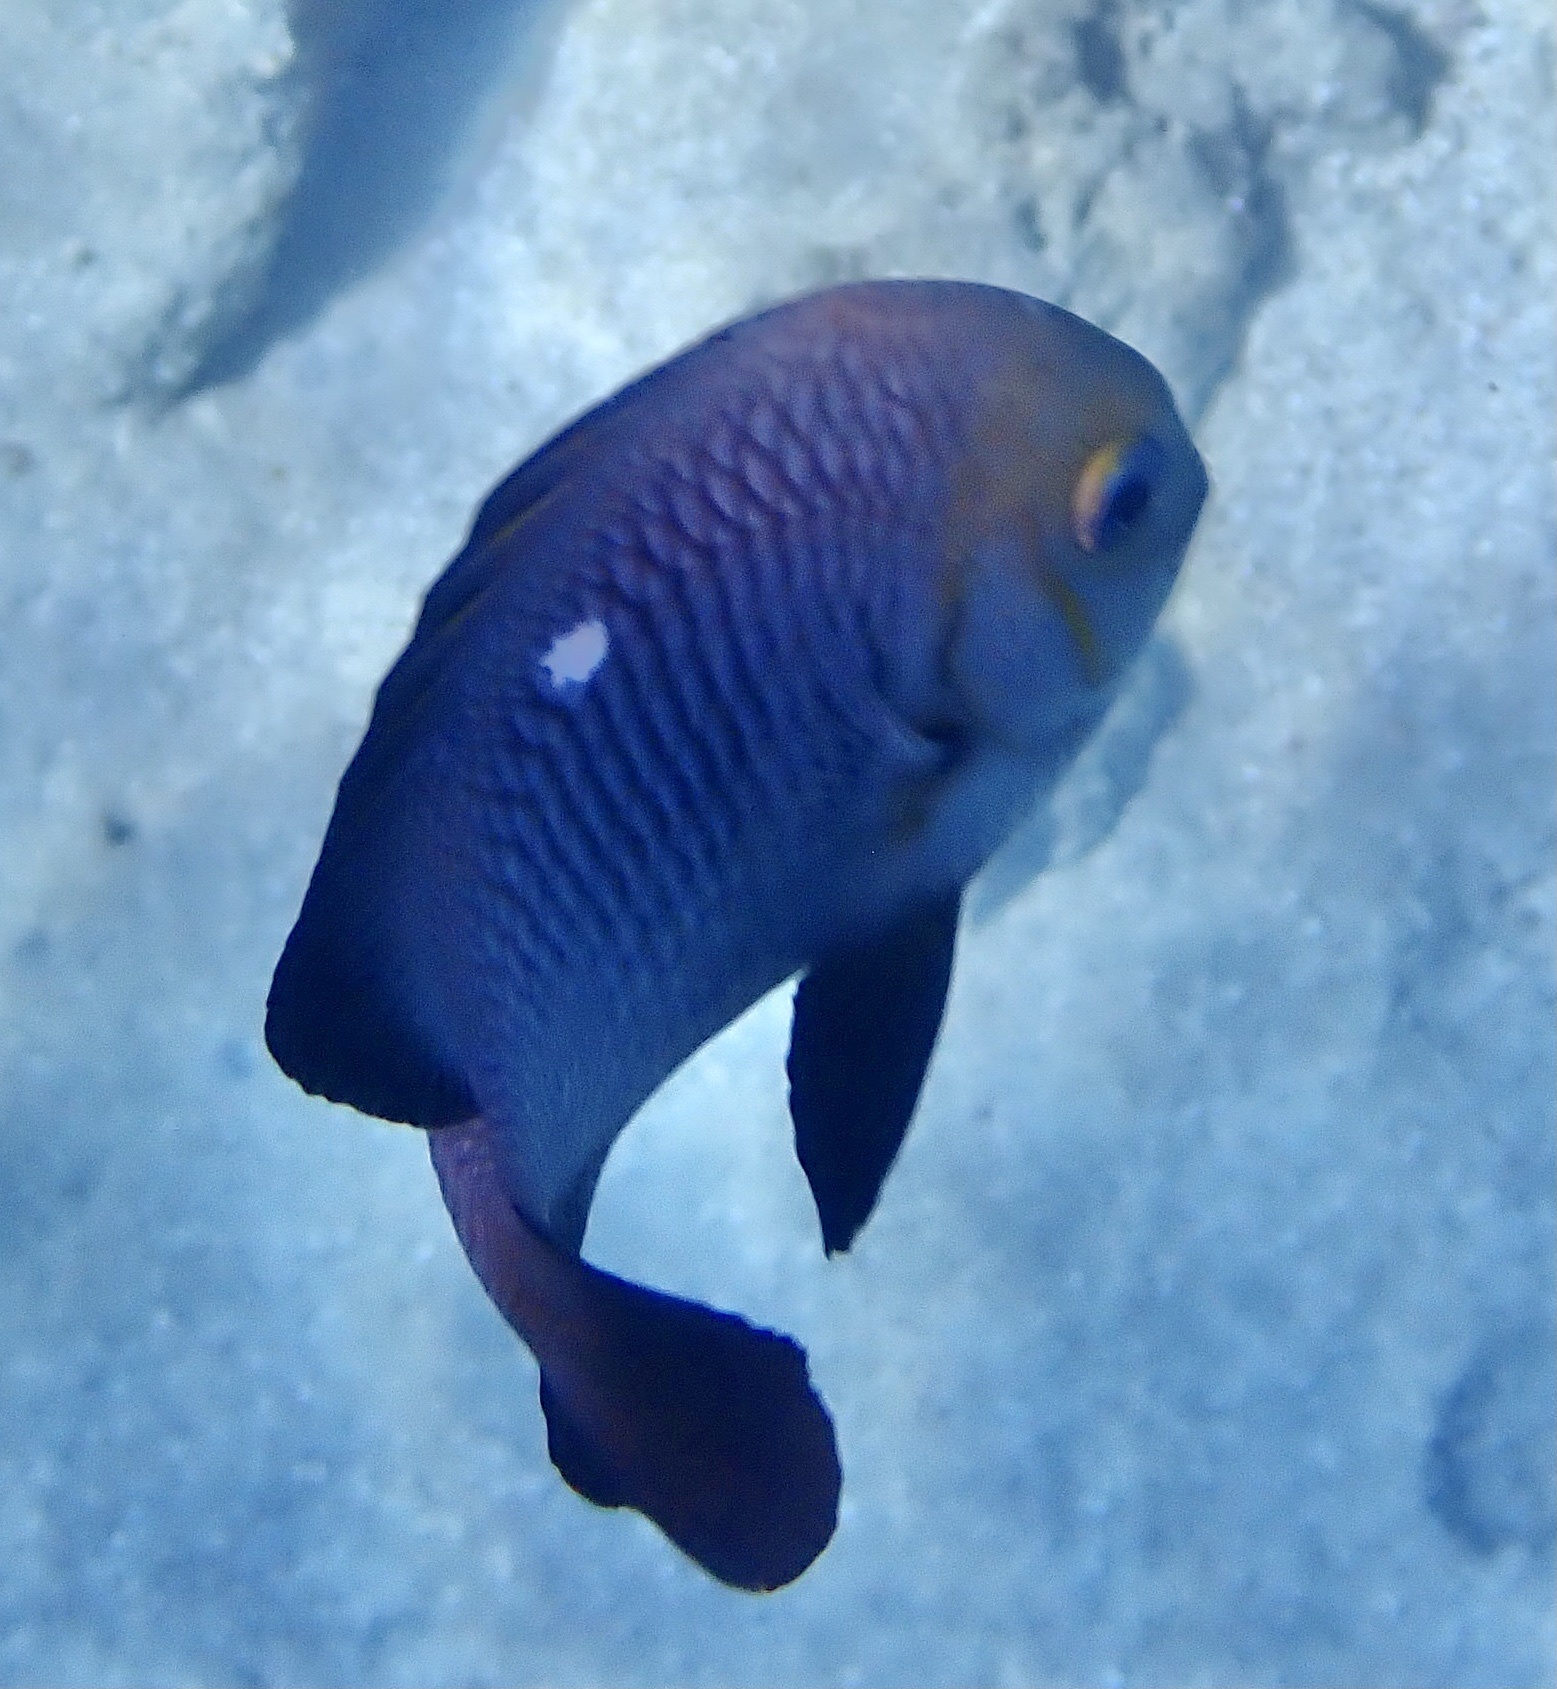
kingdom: Animalia
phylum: Chordata
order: Perciformes
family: Pomacentridae
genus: Dascyllus
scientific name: Dascyllus trimaculatus
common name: Threespot dascyllus
